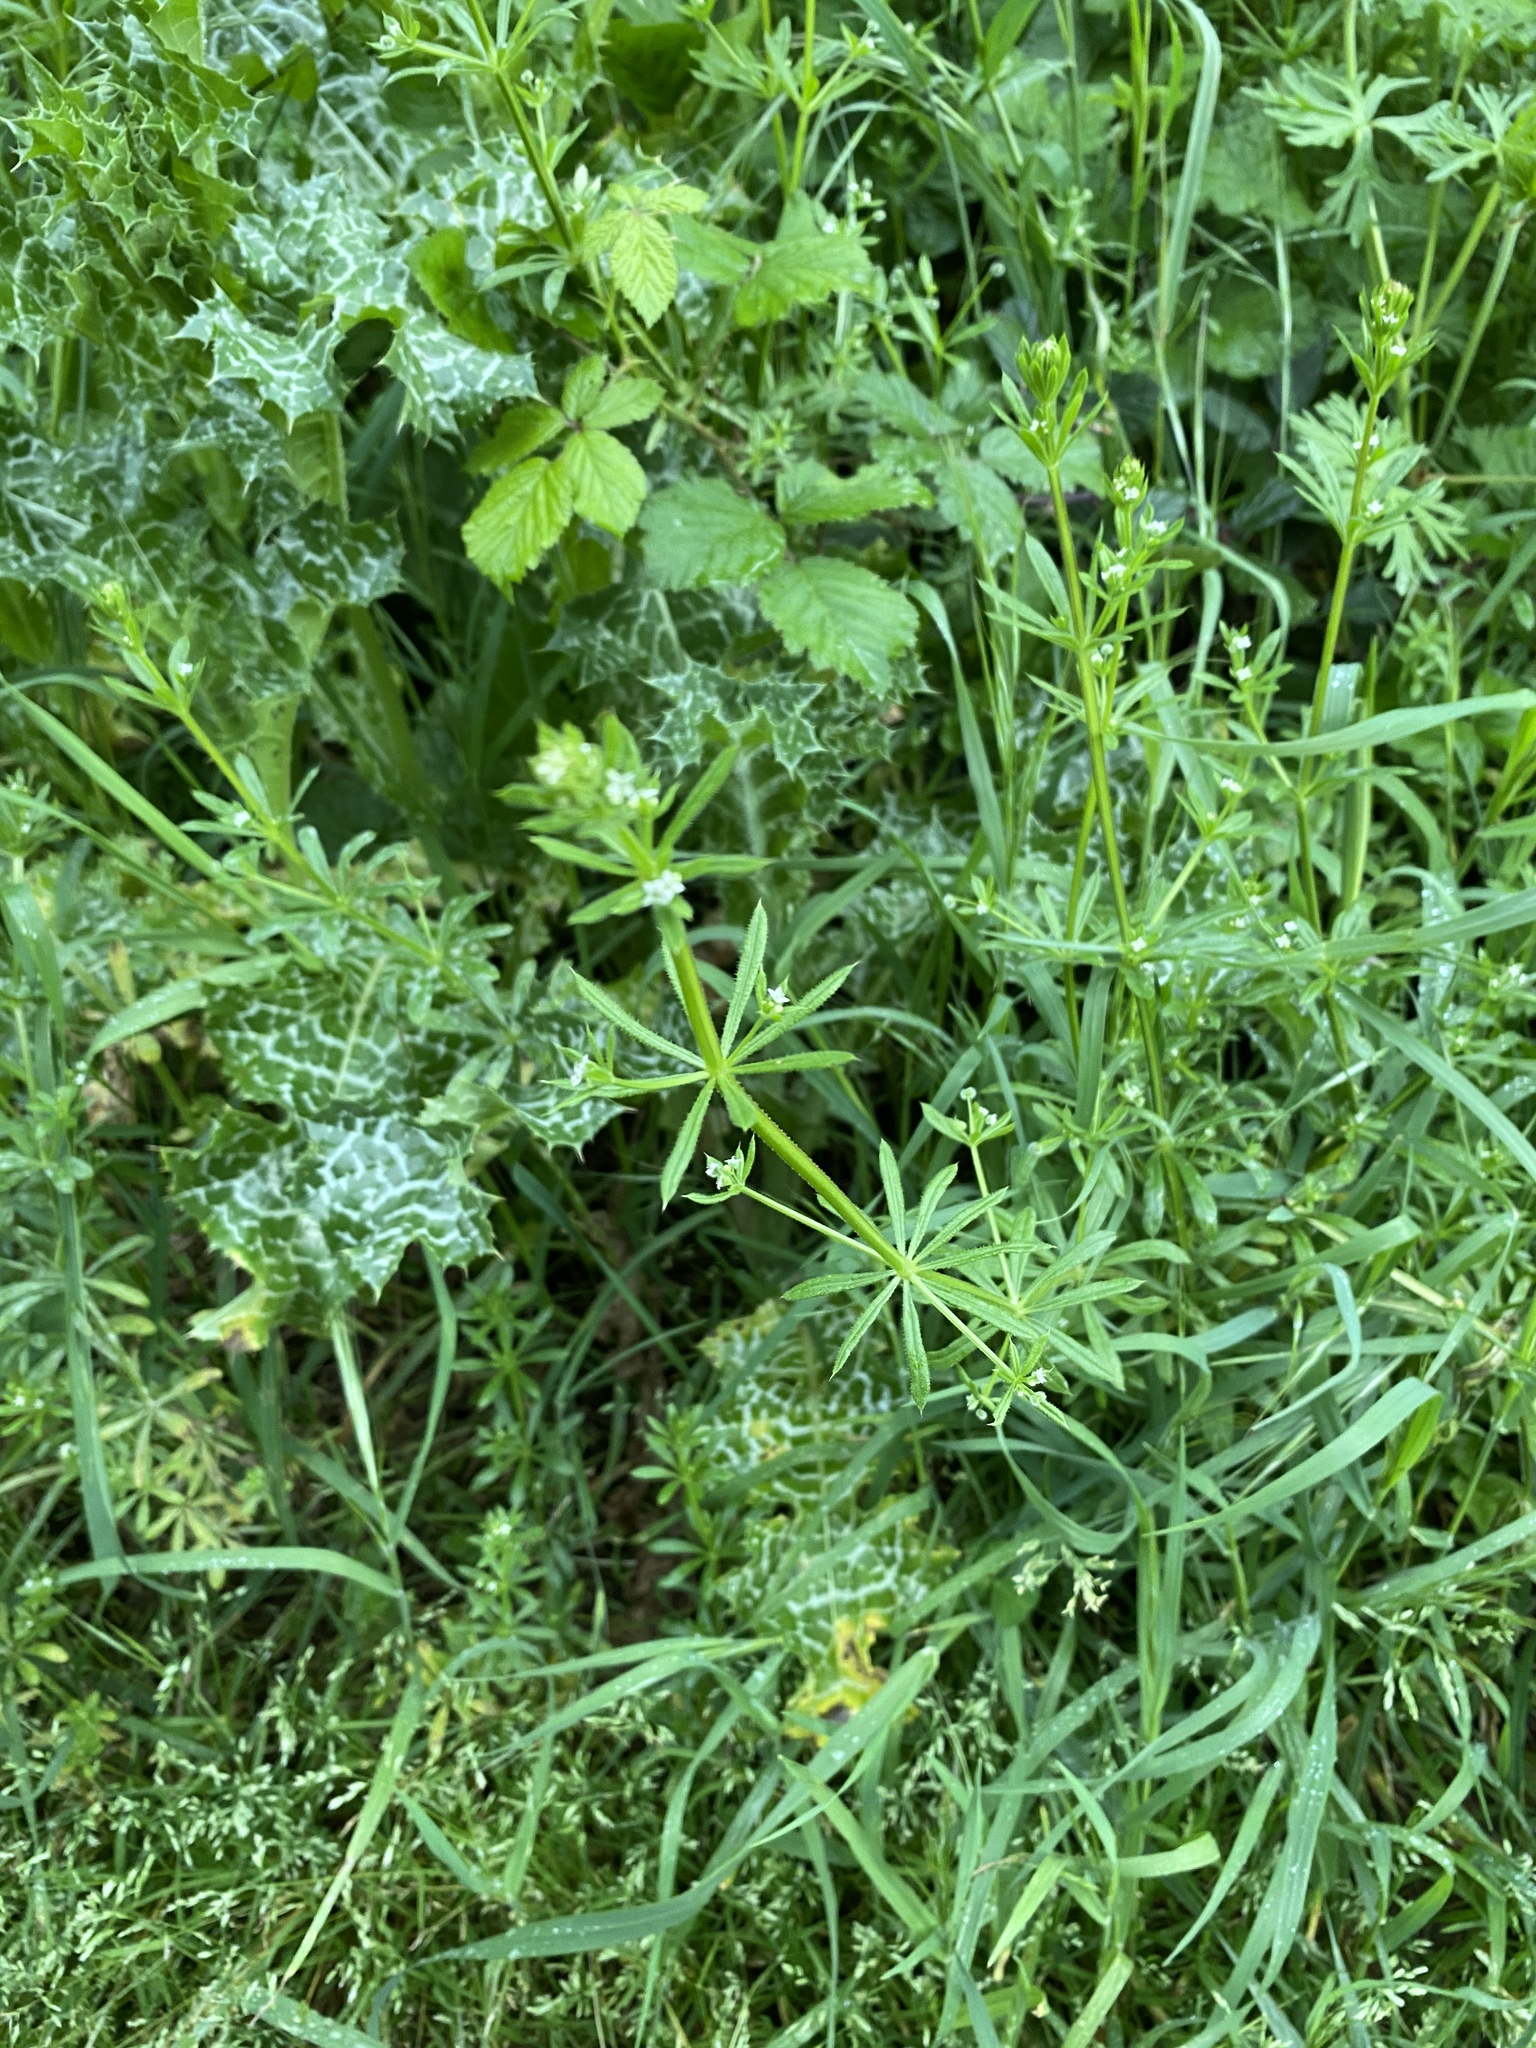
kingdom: Plantae
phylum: Tracheophyta
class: Magnoliopsida
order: Gentianales
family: Rubiaceae
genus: Galium
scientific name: Galium aparine
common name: Cleavers
